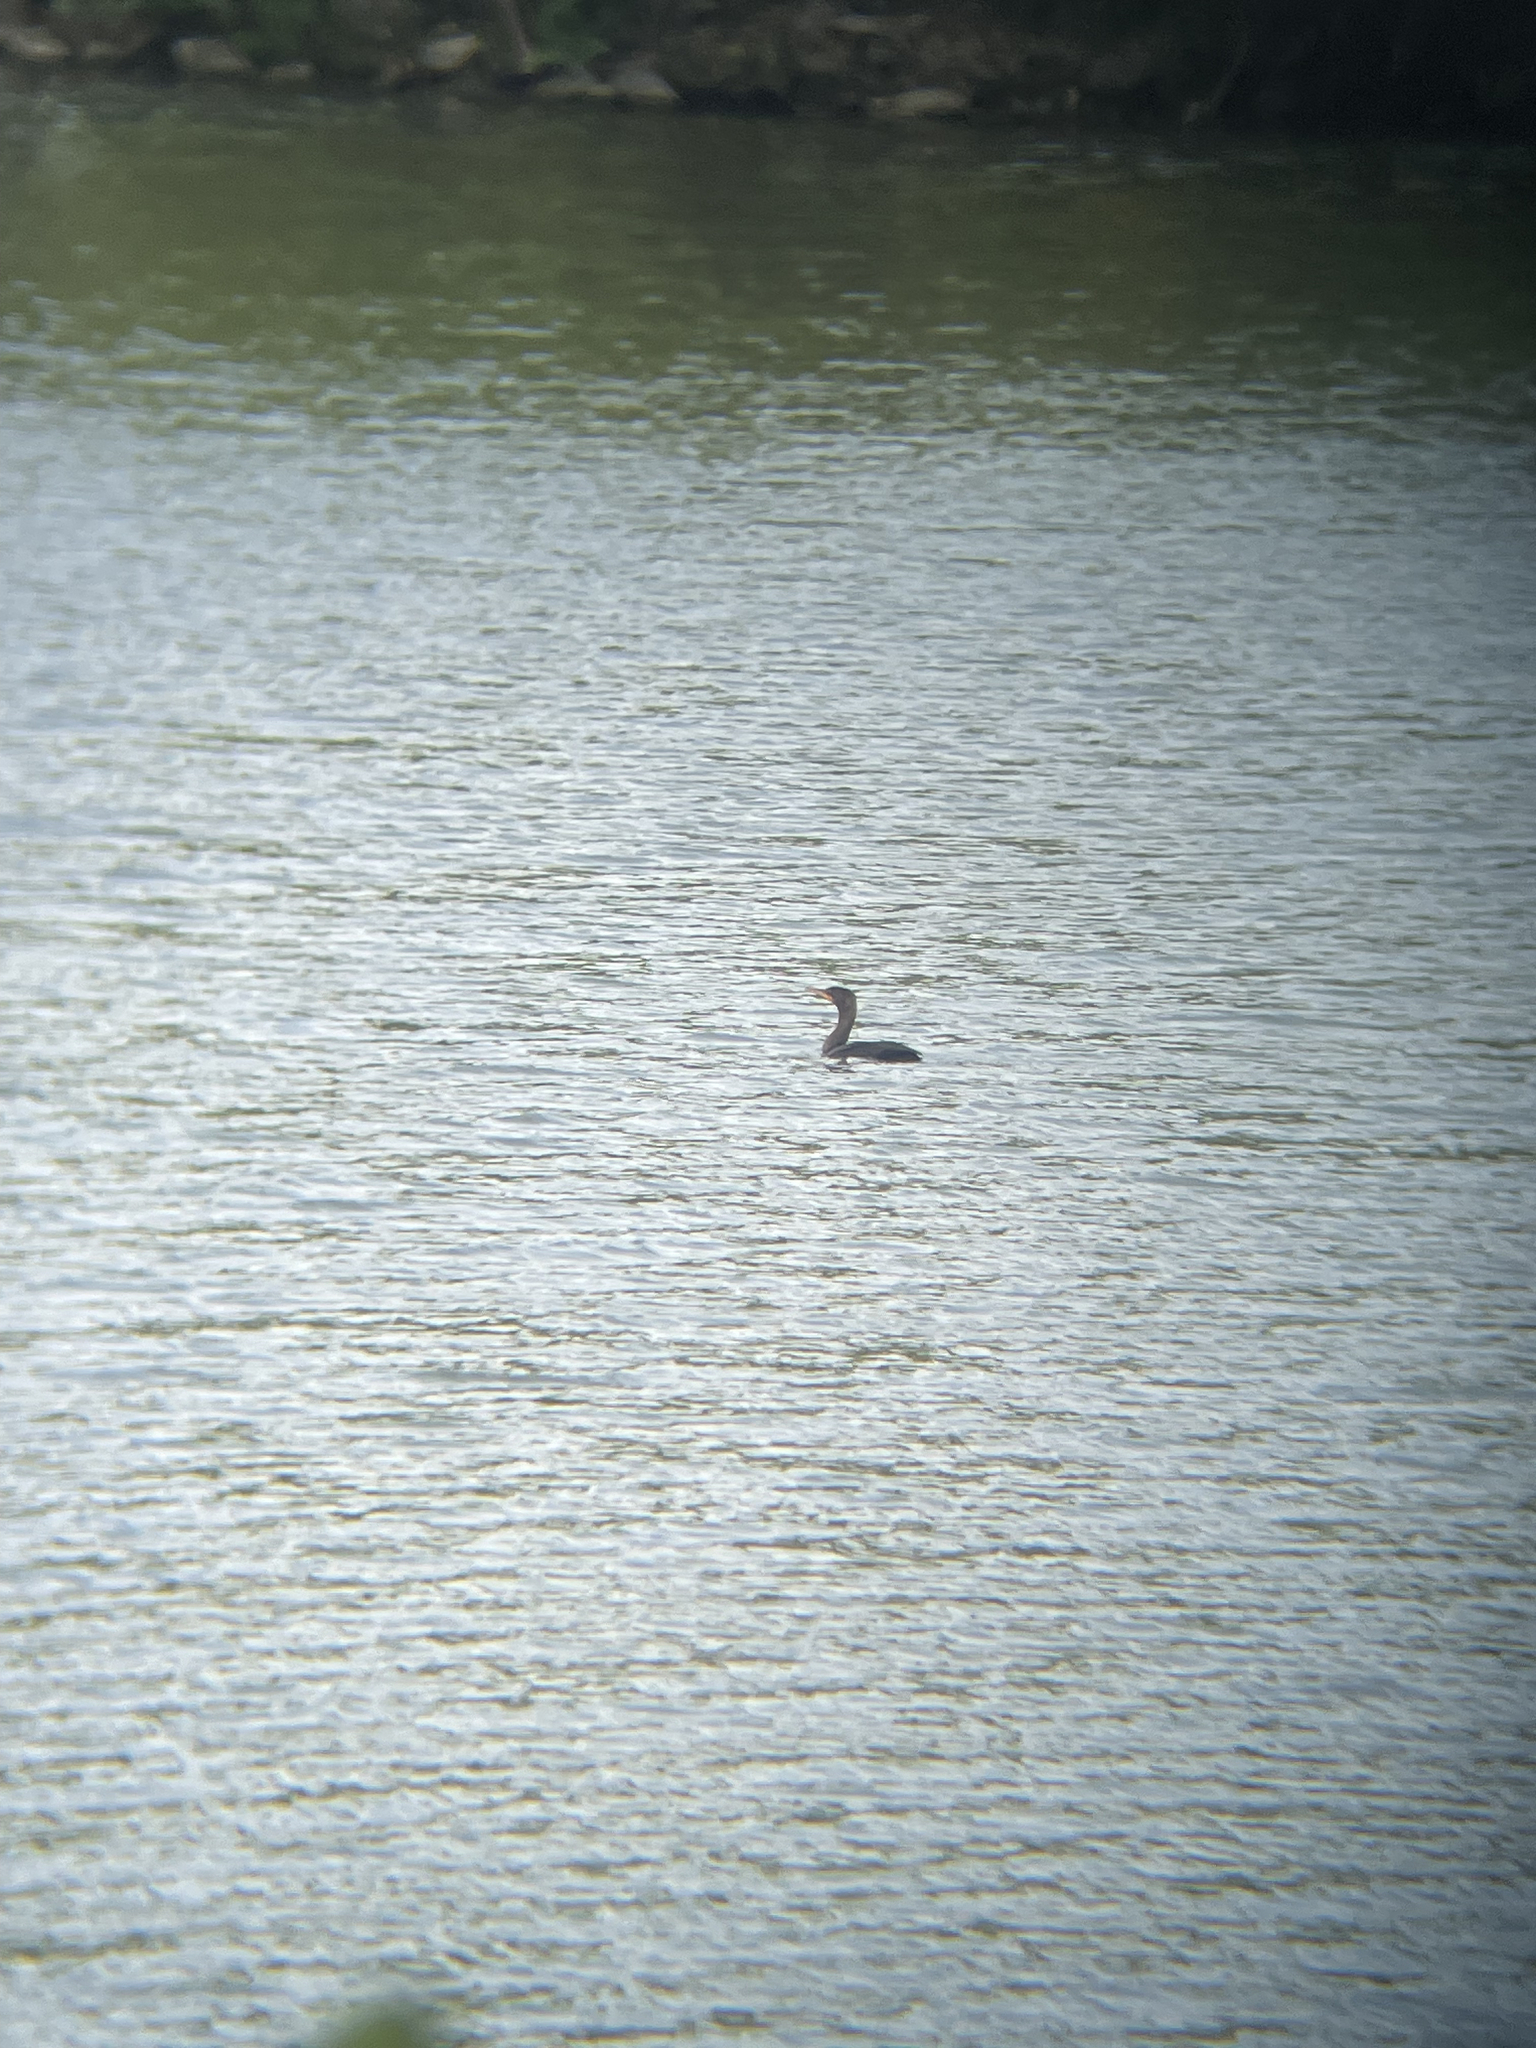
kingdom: Animalia
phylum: Chordata
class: Aves
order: Suliformes
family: Phalacrocoracidae
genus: Phalacrocorax
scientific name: Phalacrocorax auritus
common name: Double-crested cormorant
